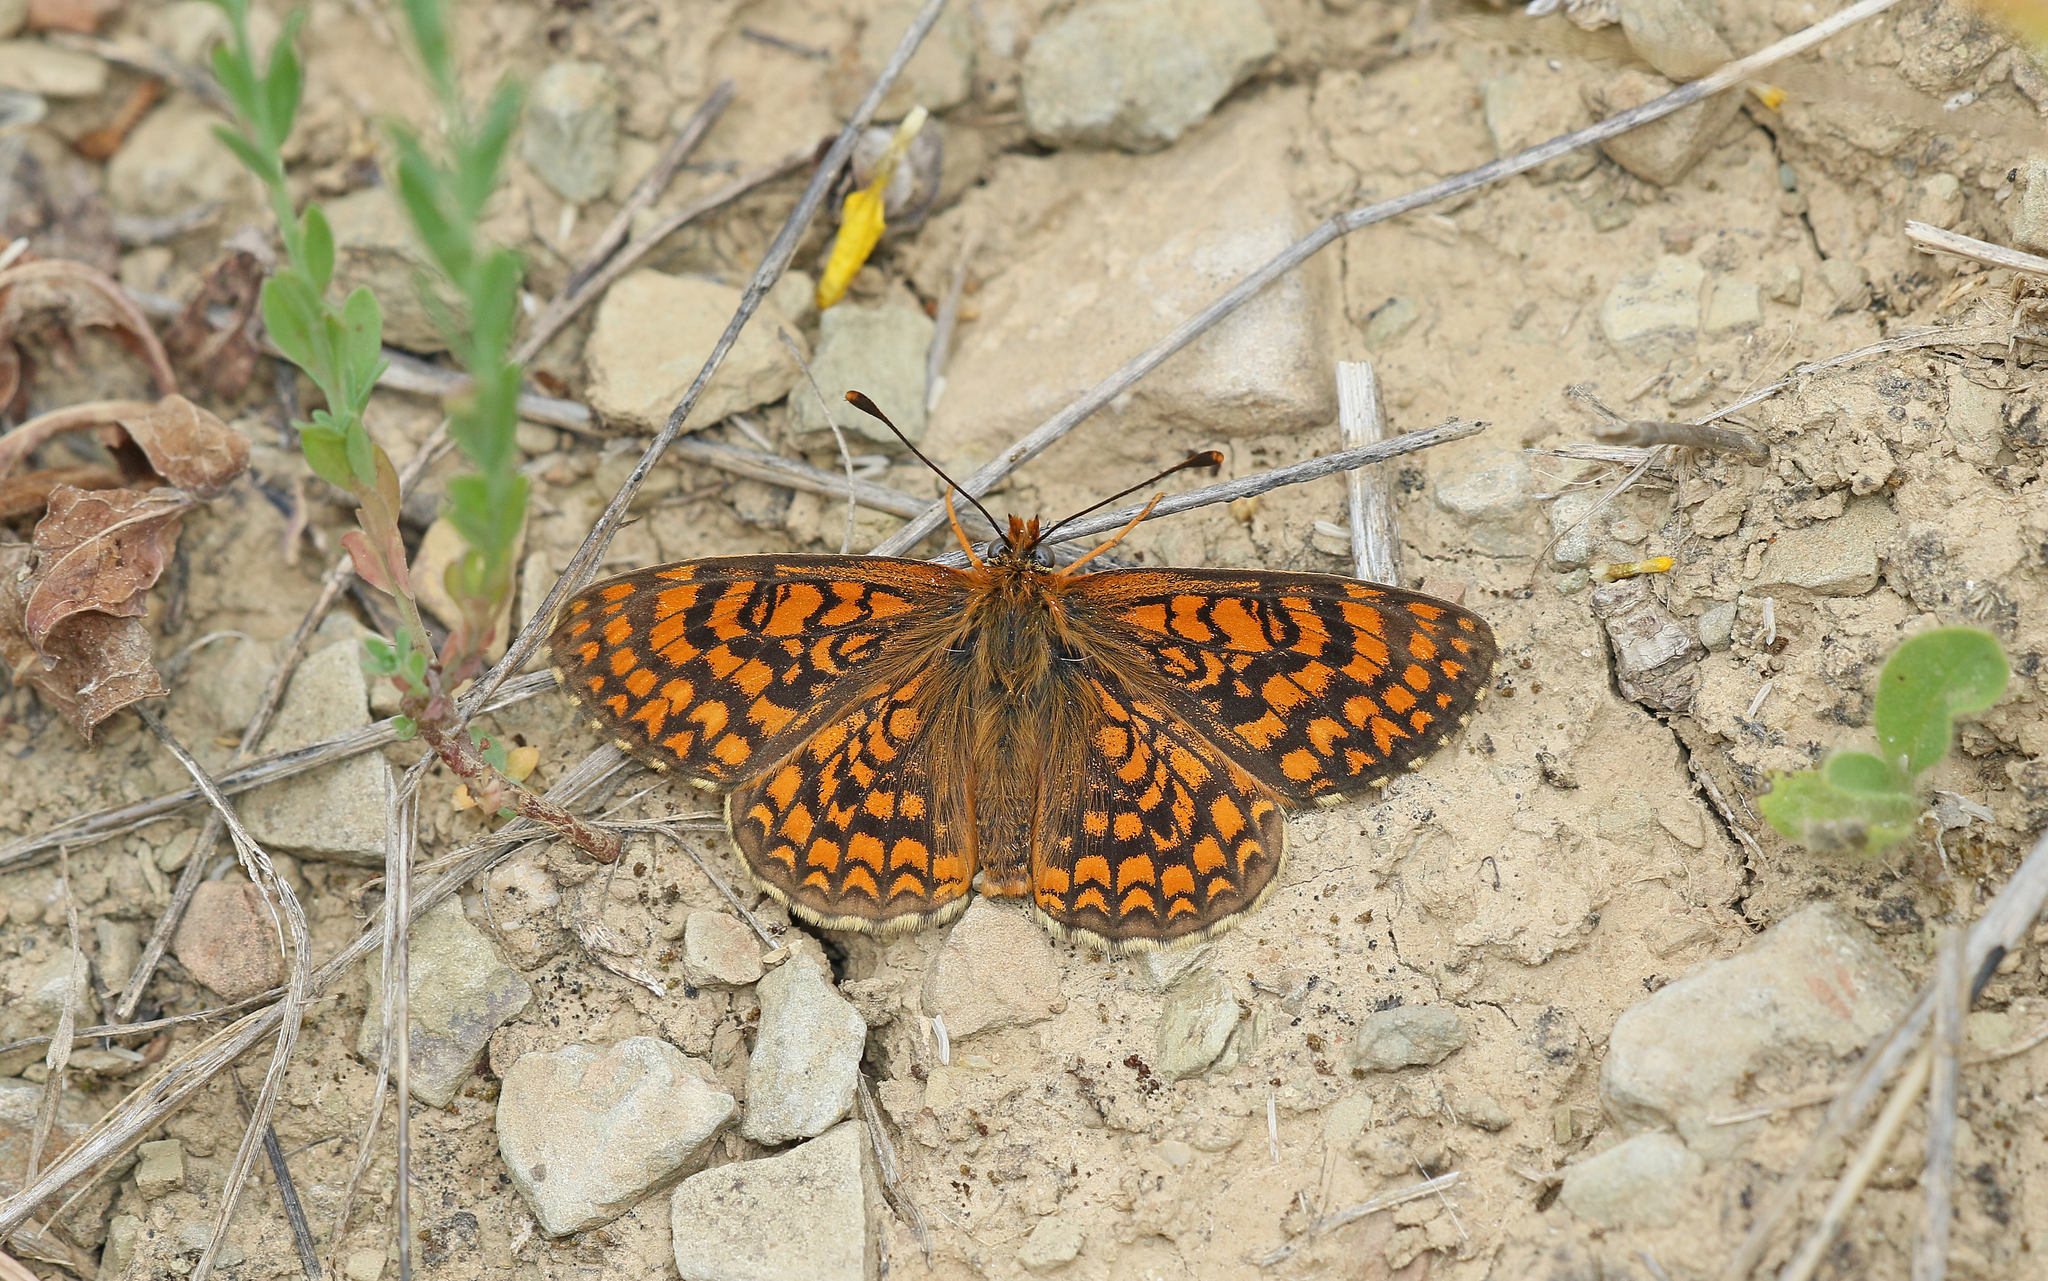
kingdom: Animalia
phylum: Arthropoda
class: Insecta
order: Lepidoptera
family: Nymphalidae
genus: Melitaea
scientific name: Melitaea deione
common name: Provençal fritillary
